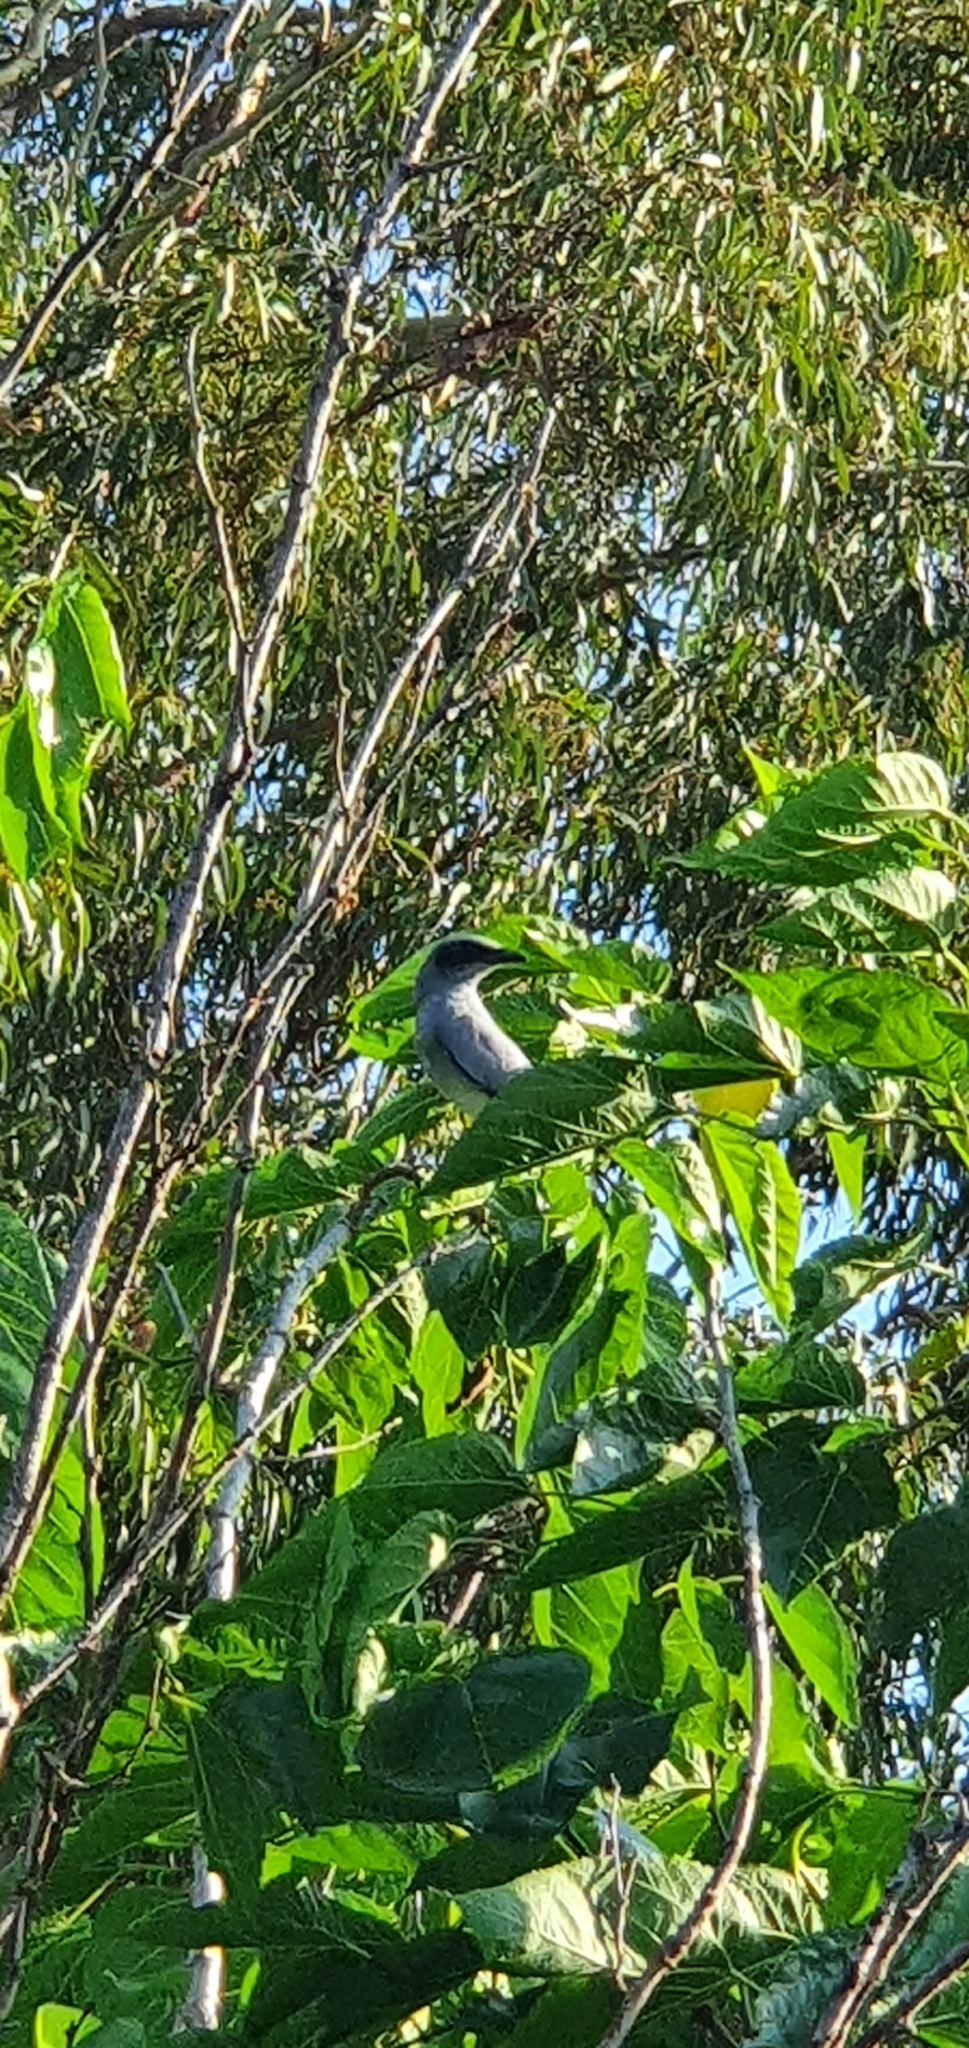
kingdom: Animalia
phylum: Chordata
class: Aves
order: Passeriformes
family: Campephagidae
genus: Coracina
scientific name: Coracina novaehollandiae
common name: Black-faced cuckooshrike
